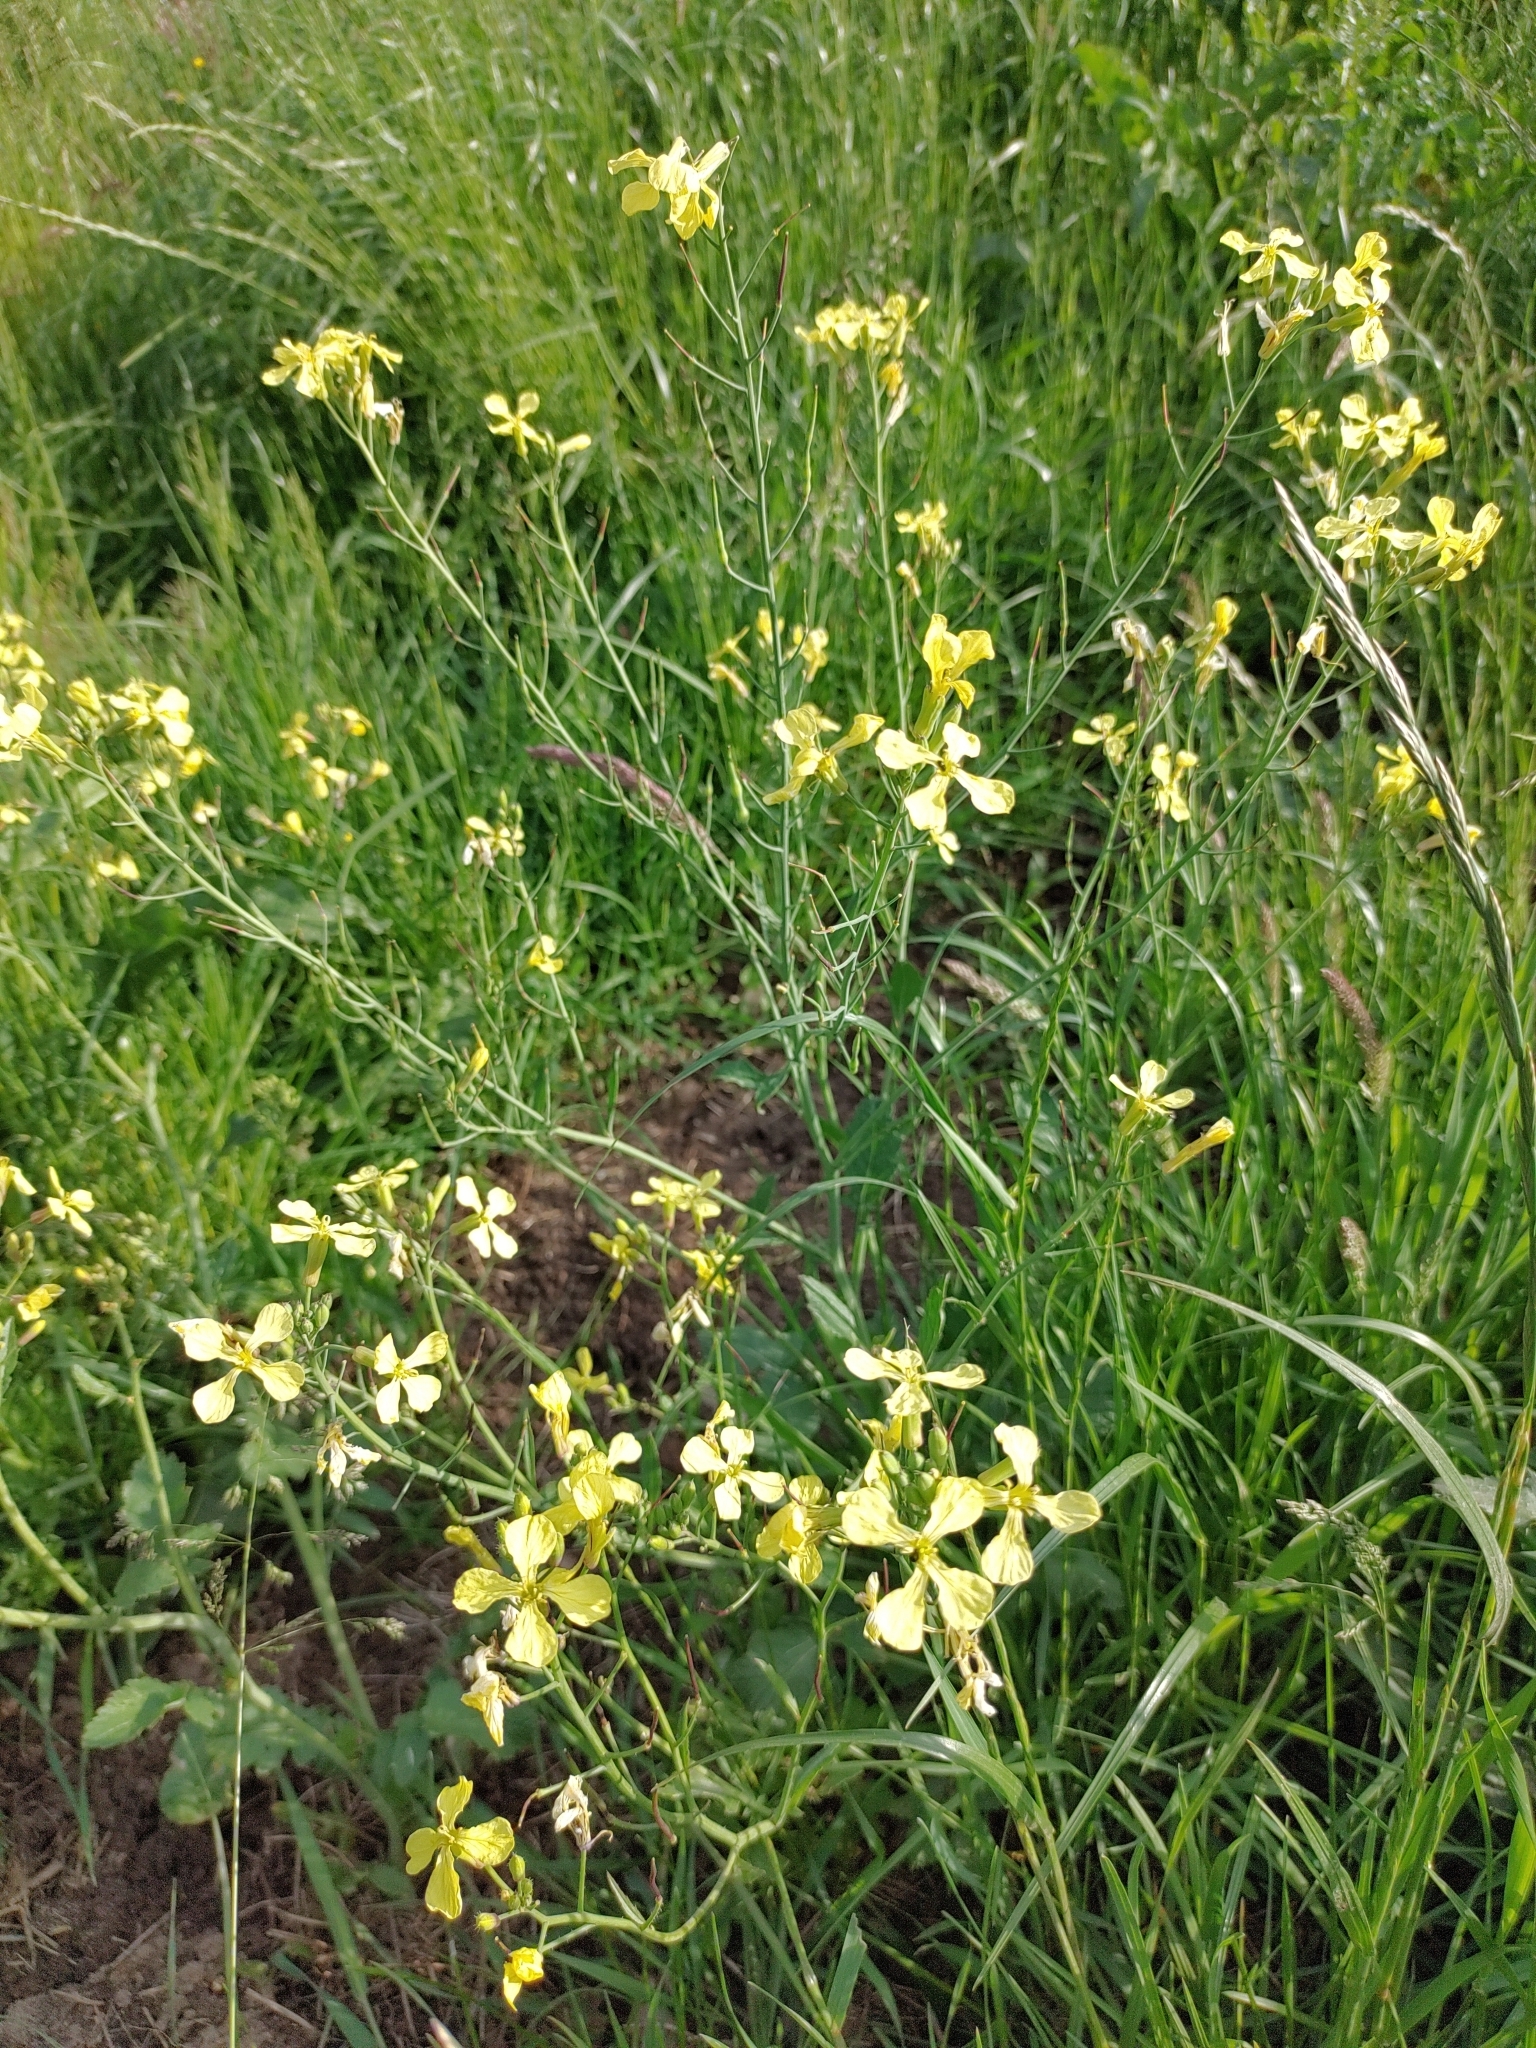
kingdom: Plantae
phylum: Tracheophyta
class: Magnoliopsida
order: Brassicales
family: Brassicaceae
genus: Raphanus
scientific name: Raphanus raphanistrum
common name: Wild radish
